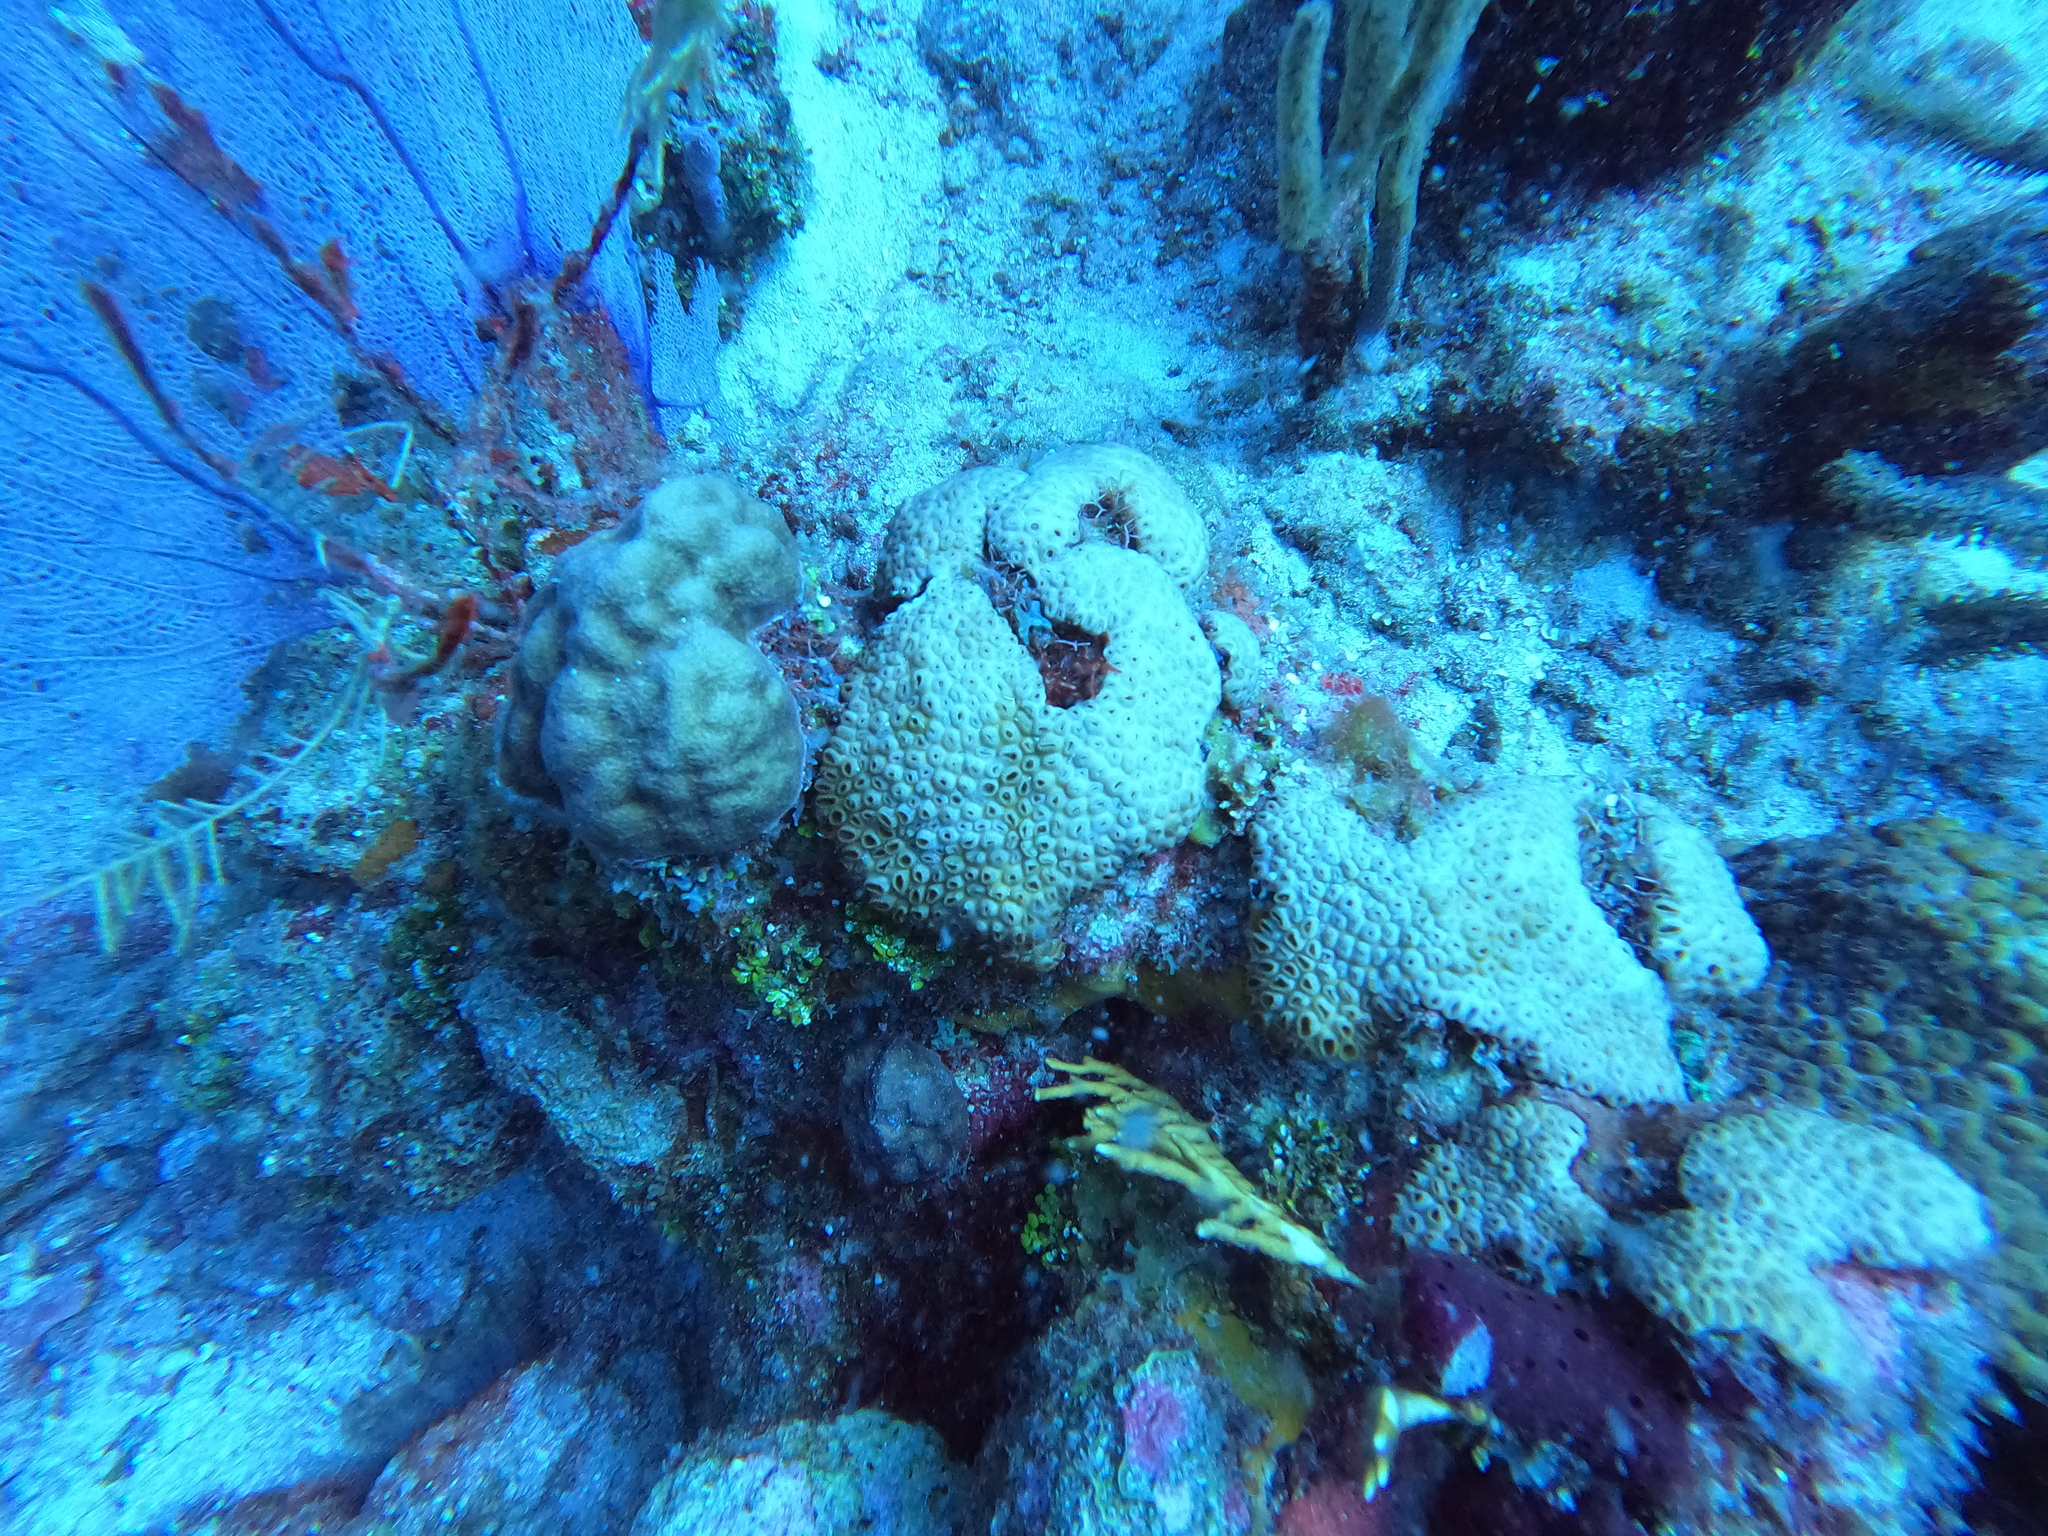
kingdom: Animalia
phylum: Cnidaria
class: Anthozoa
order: Scleractinia
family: Montastraeidae
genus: Montastraea
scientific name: Montastraea cavernosa
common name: Great star coral
